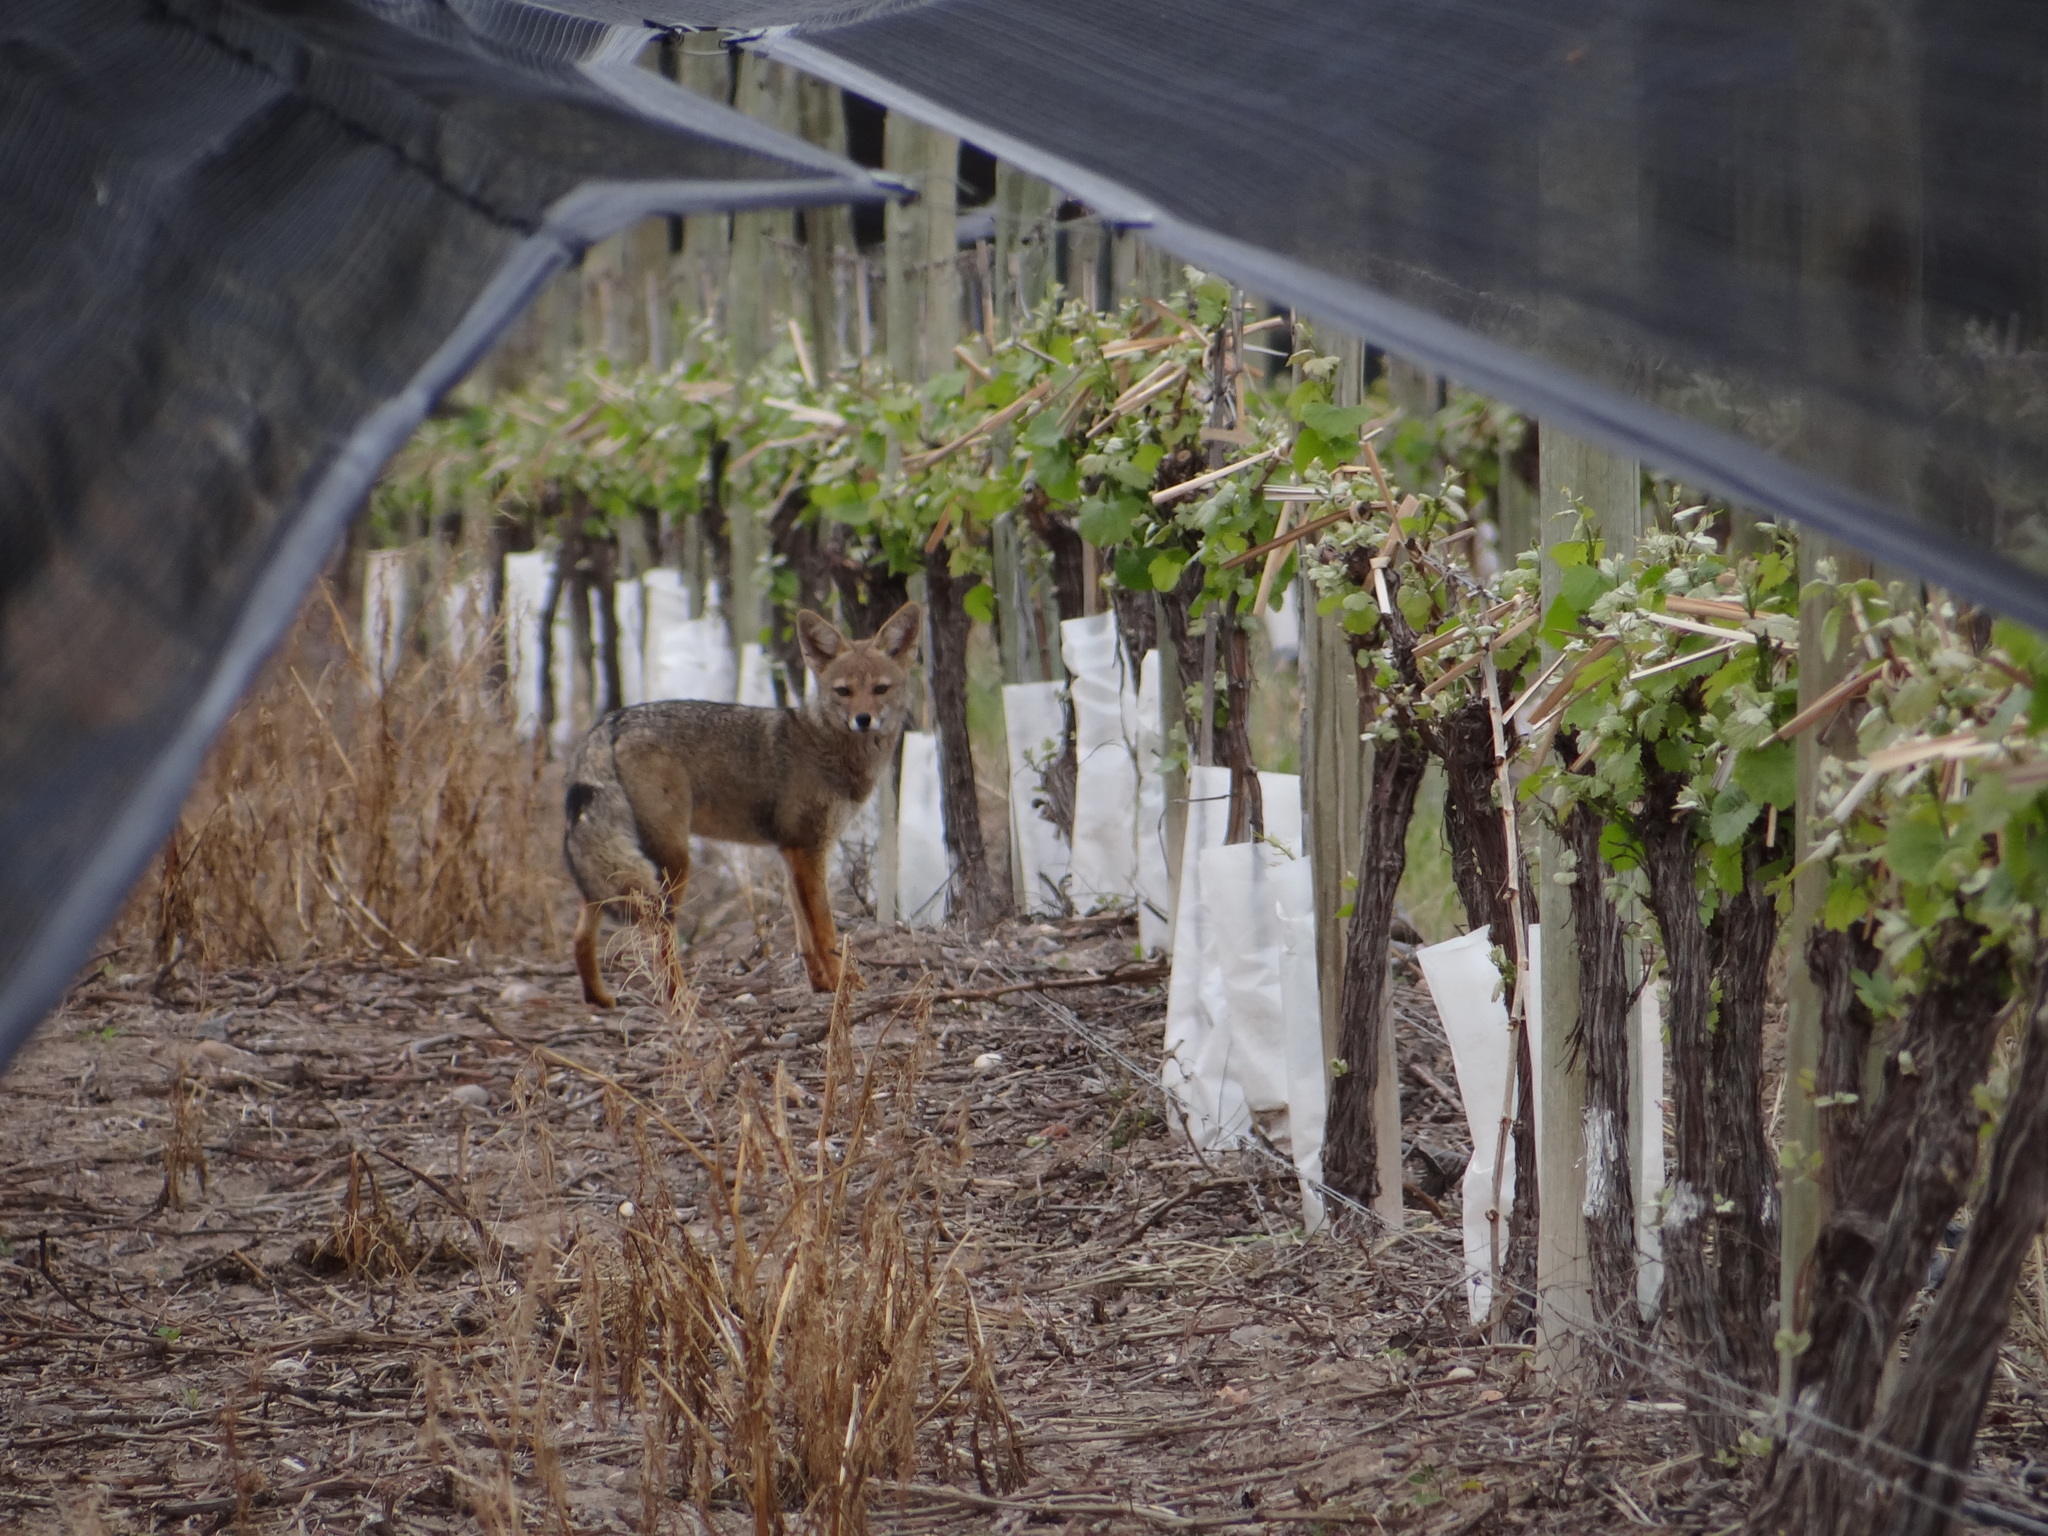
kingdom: Animalia
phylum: Chordata
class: Mammalia
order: Carnivora
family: Canidae
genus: Lycalopex
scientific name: Lycalopex gymnocercus
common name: Pampas fox
